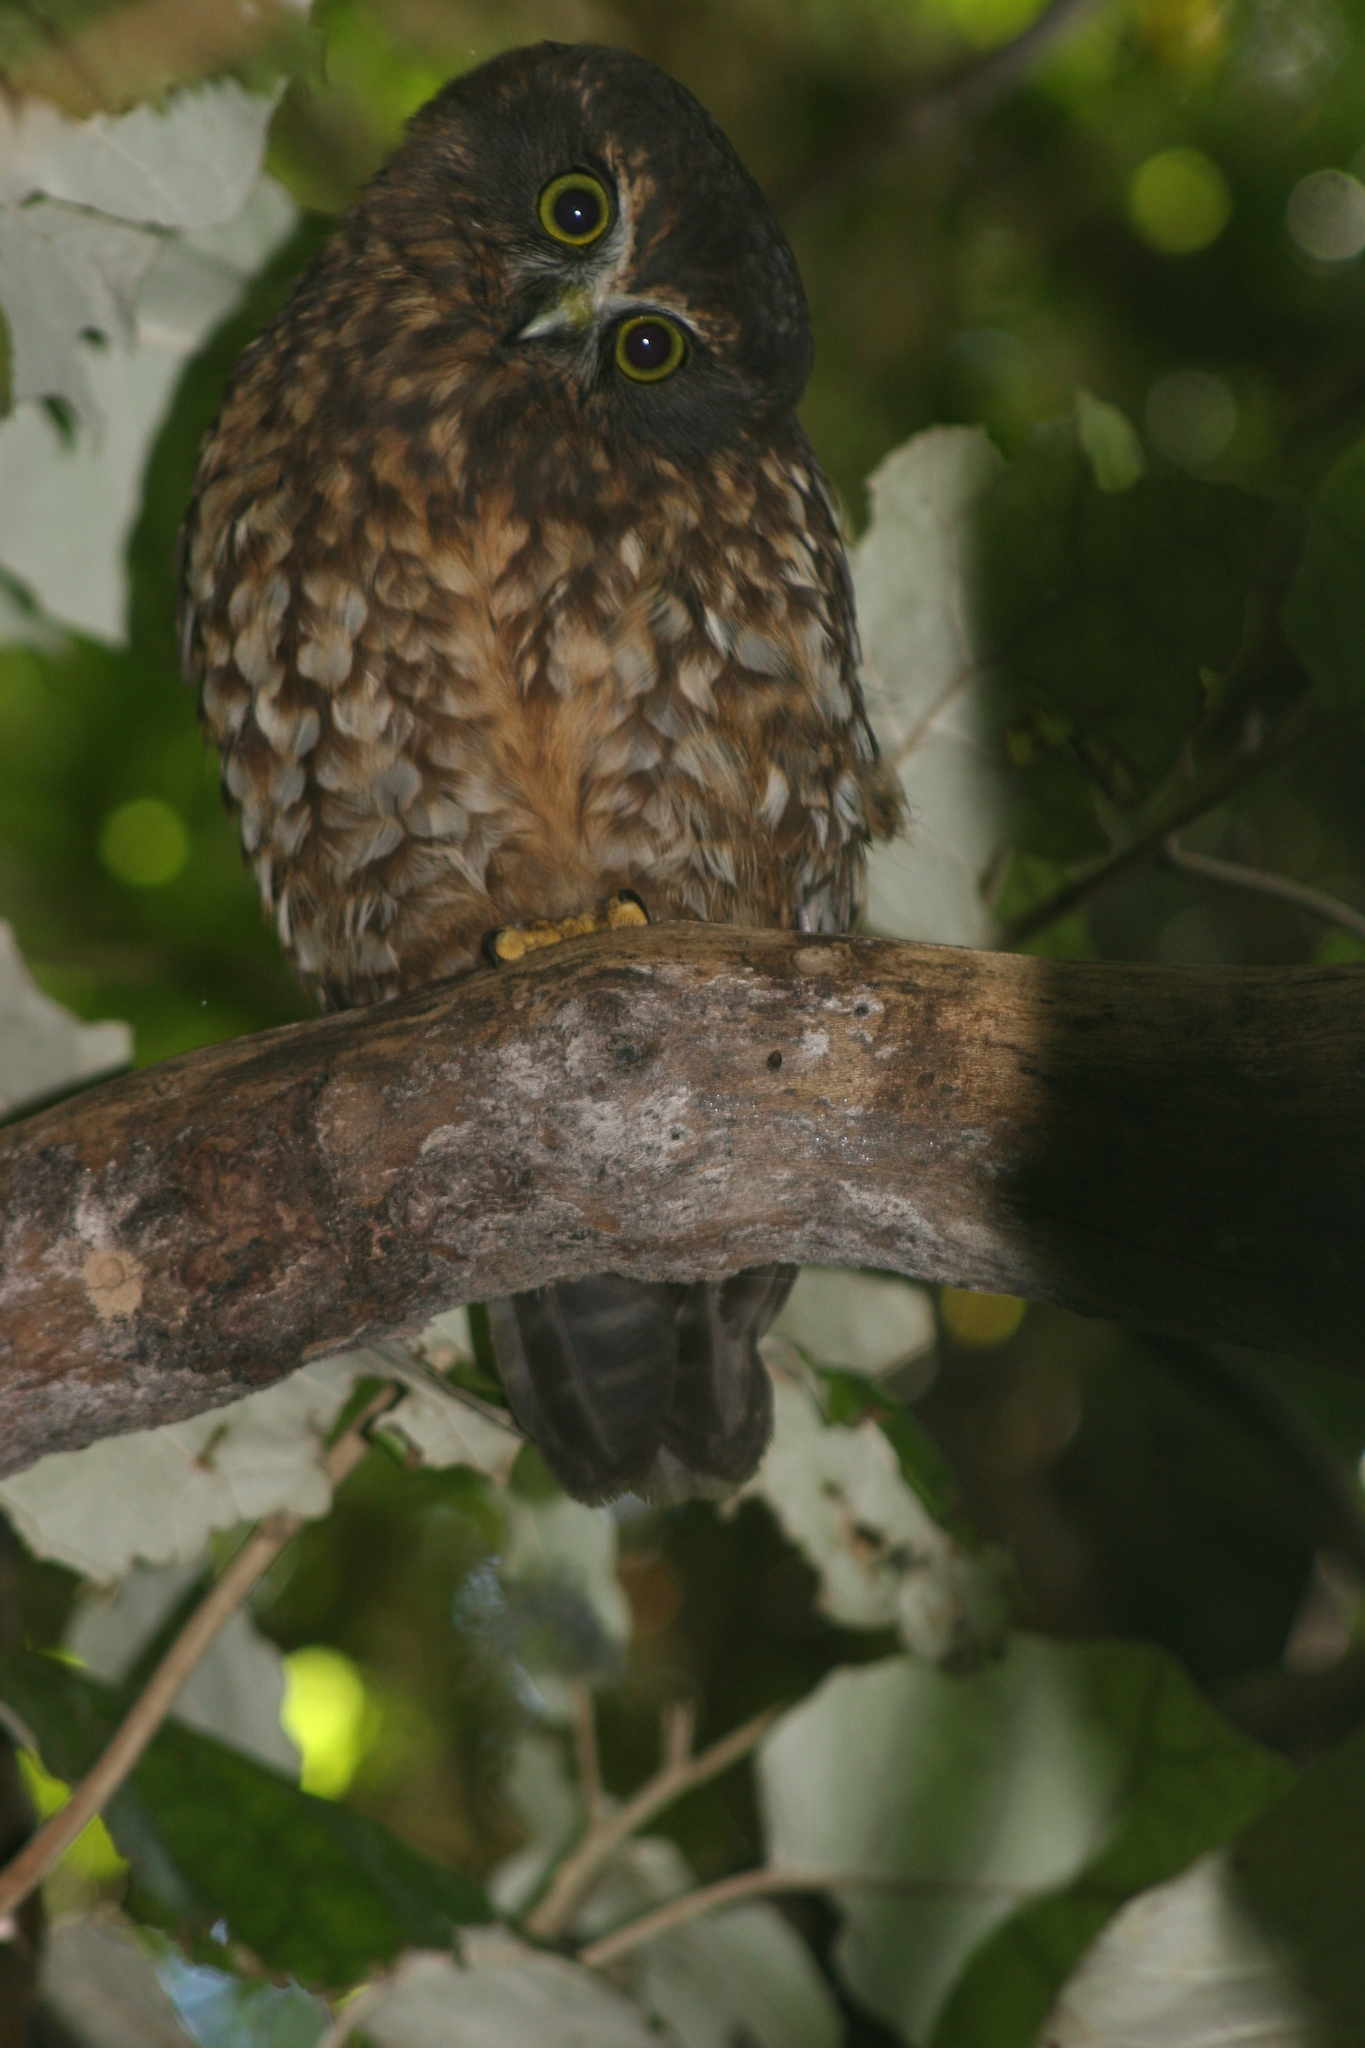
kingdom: Animalia
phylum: Chordata
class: Aves
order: Strigiformes
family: Strigidae
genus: Ninox
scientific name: Ninox novaeseelandiae
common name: Morepork
